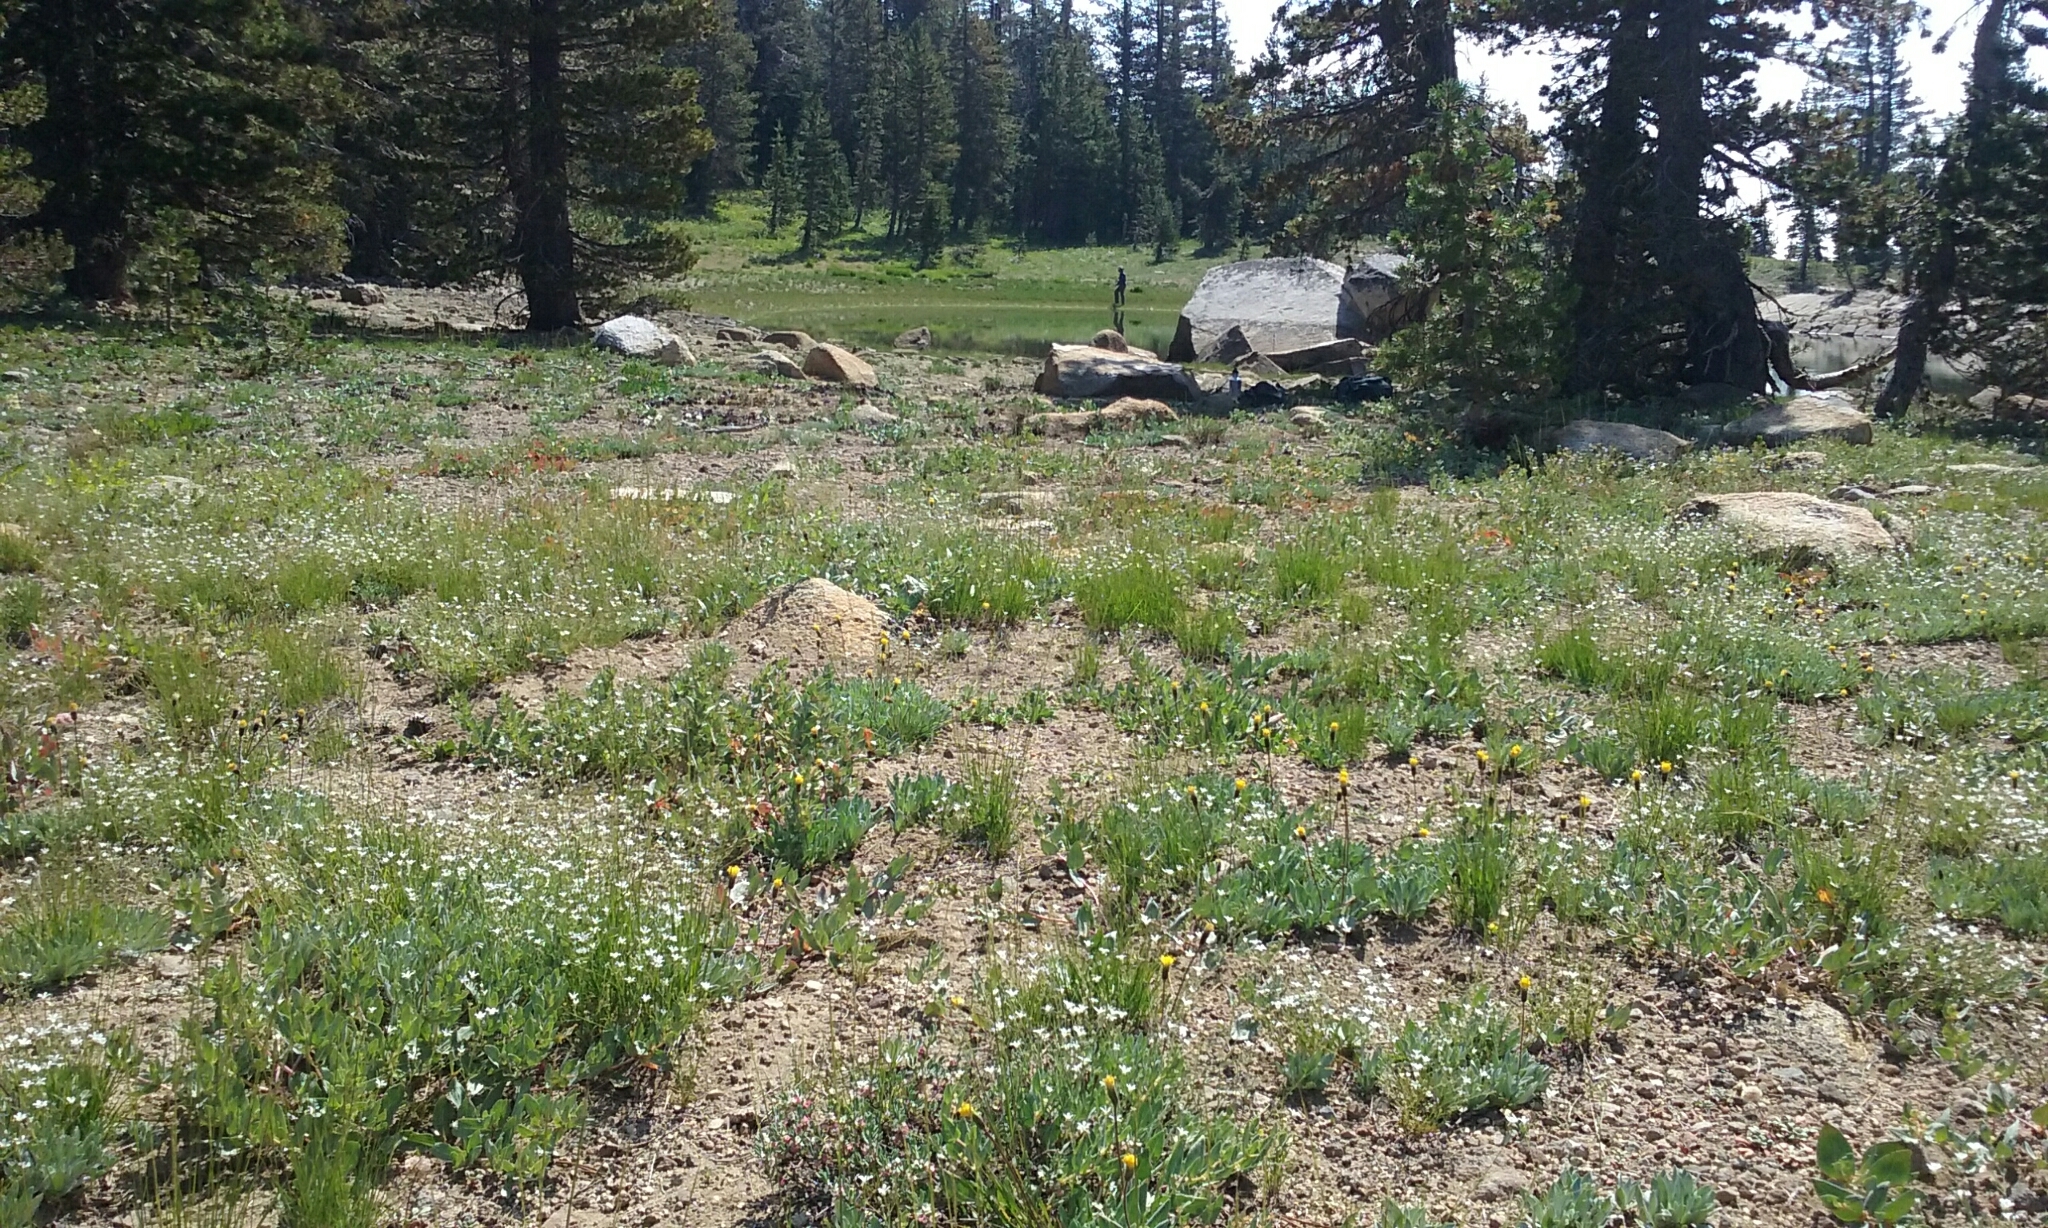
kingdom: Plantae
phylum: Tracheophyta
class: Magnoliopsida
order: Caryophyllales
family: Caryophyllaceae
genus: Eremogone
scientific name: Eremogone kingii
